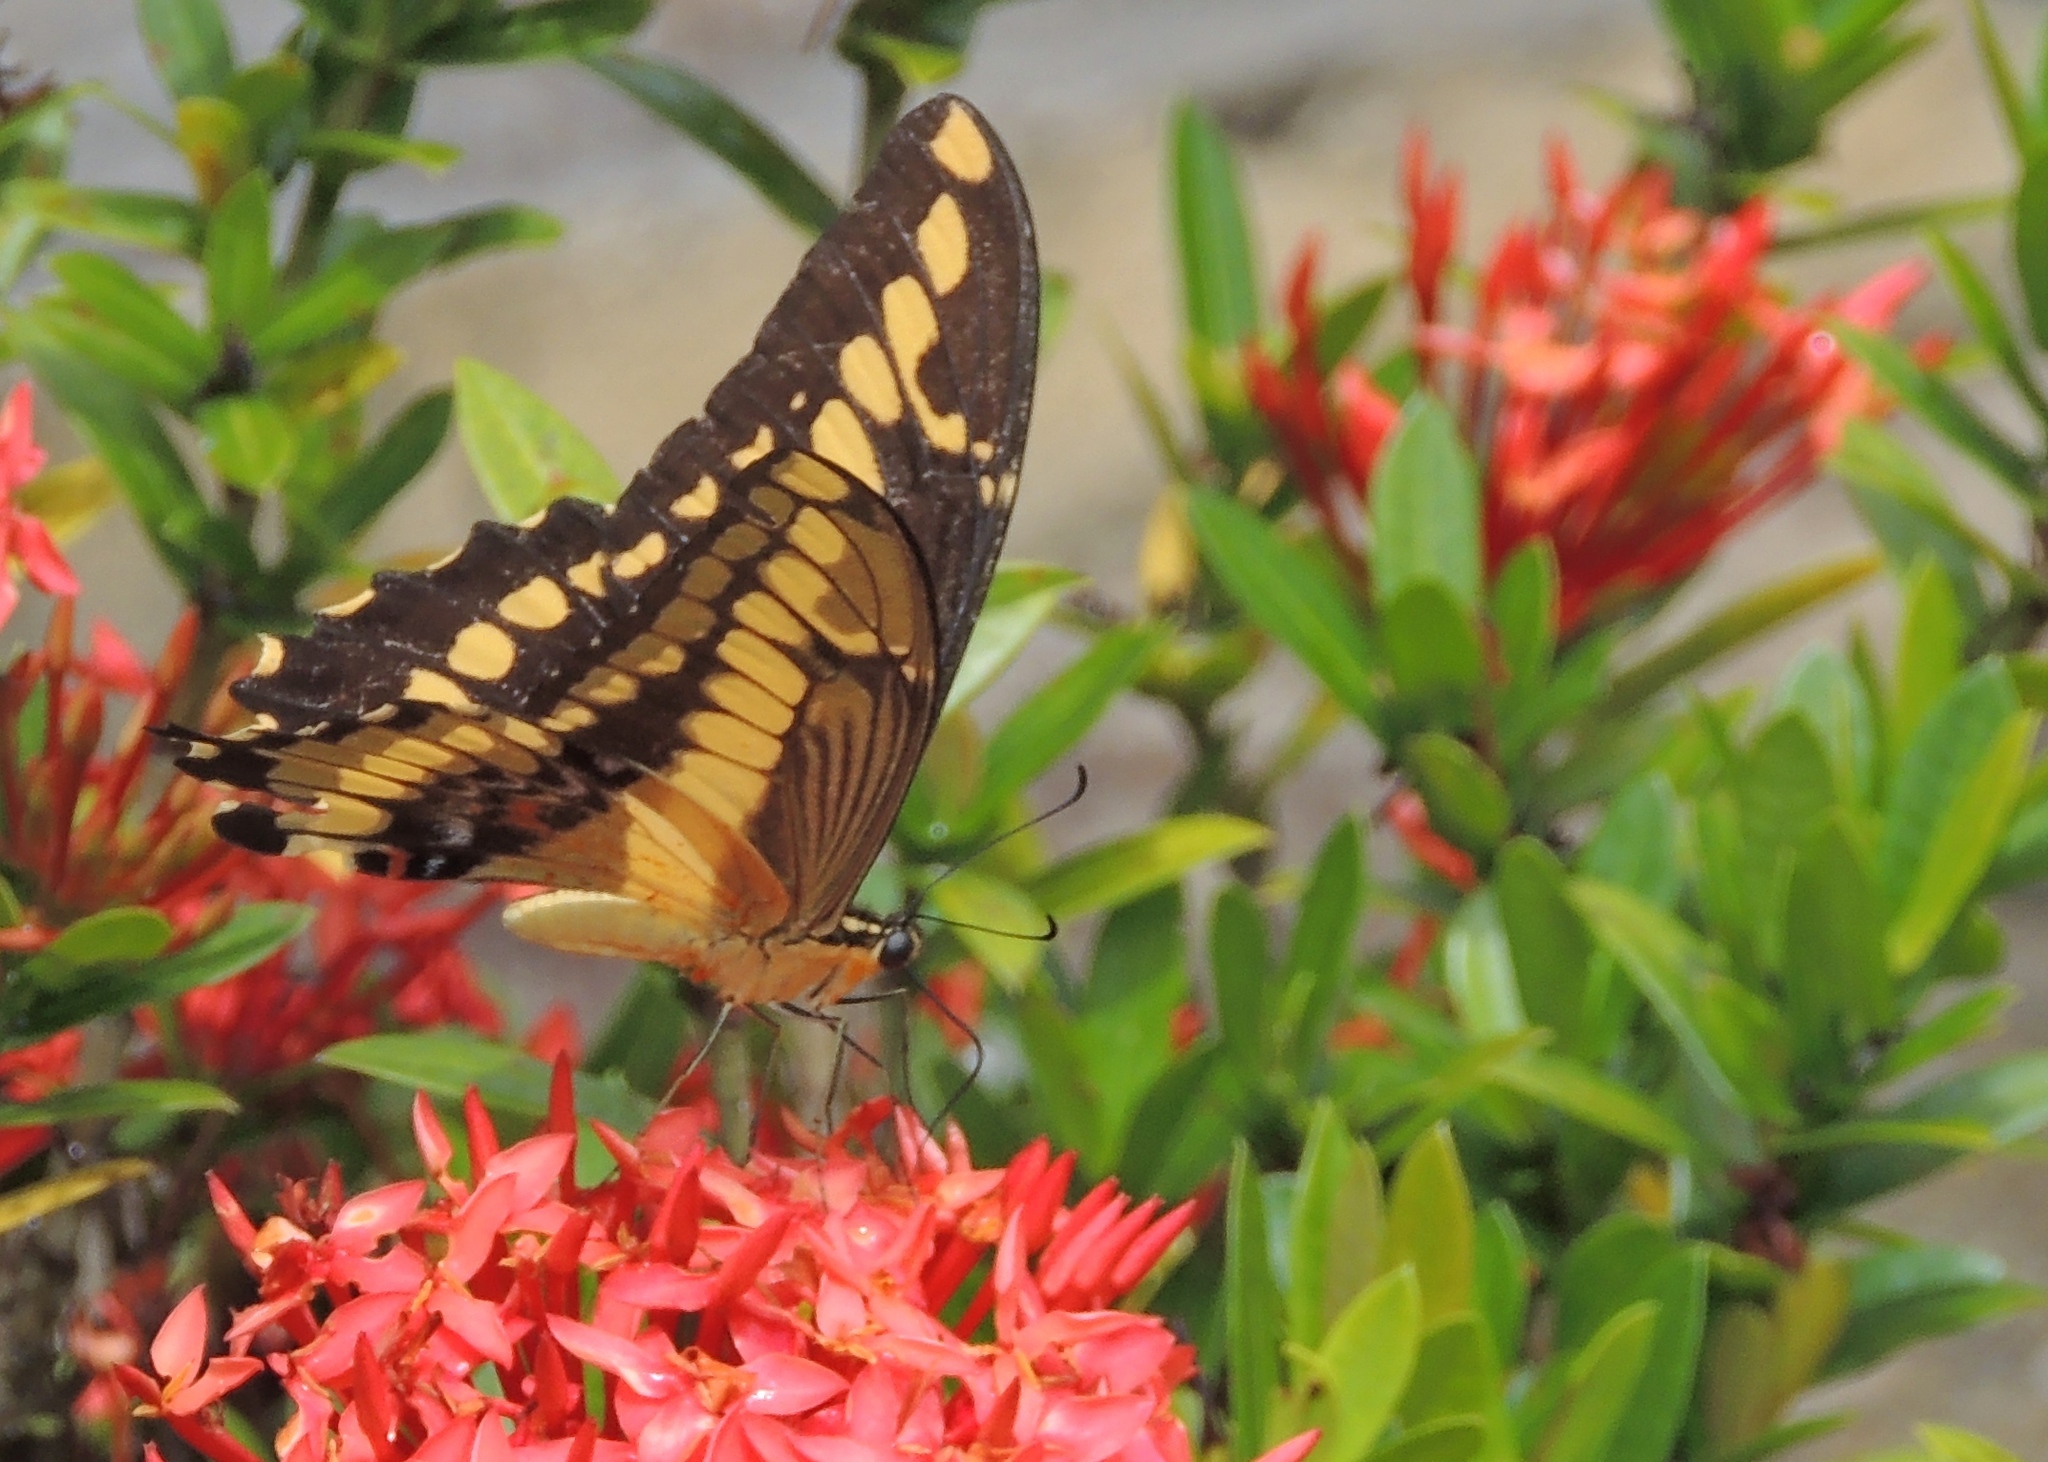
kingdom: Animalia
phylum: Arthropoda
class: Insecta
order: Lepidoptera
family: Papilionidae
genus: Papilio
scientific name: Papilio thoas
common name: King swallowtail
